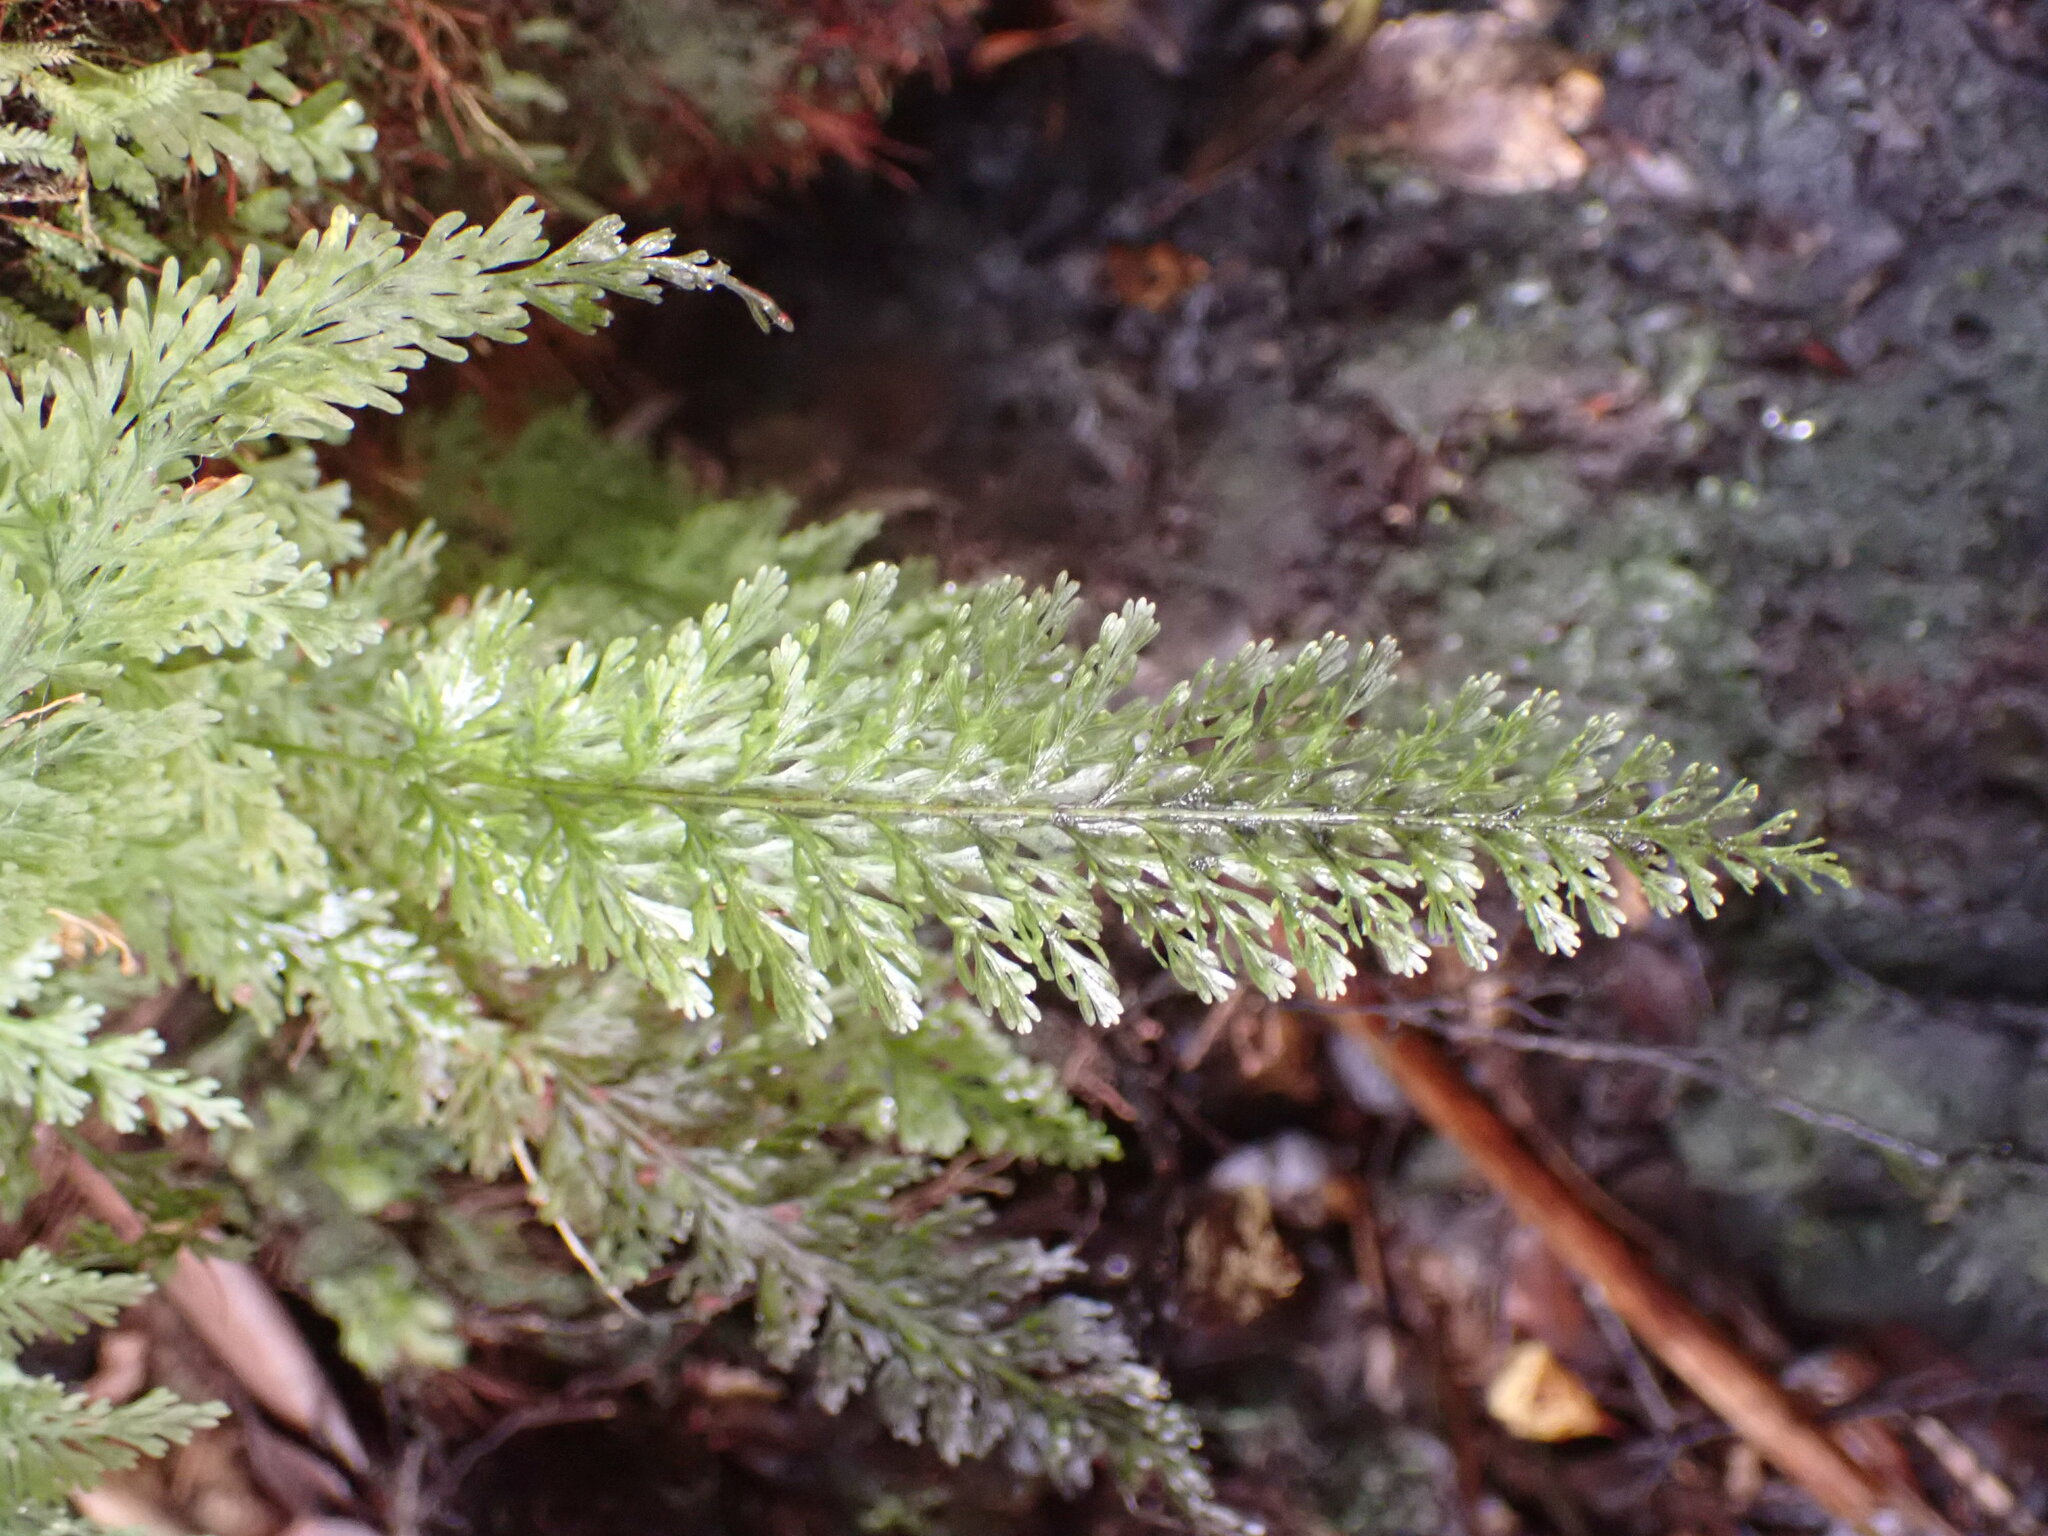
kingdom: Plantae
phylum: Tracheophyta
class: Polypodiopsida
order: Hymenophyllales
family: Hymenophyllaceae
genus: Abrodictyum
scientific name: Abrodictyum strictum
